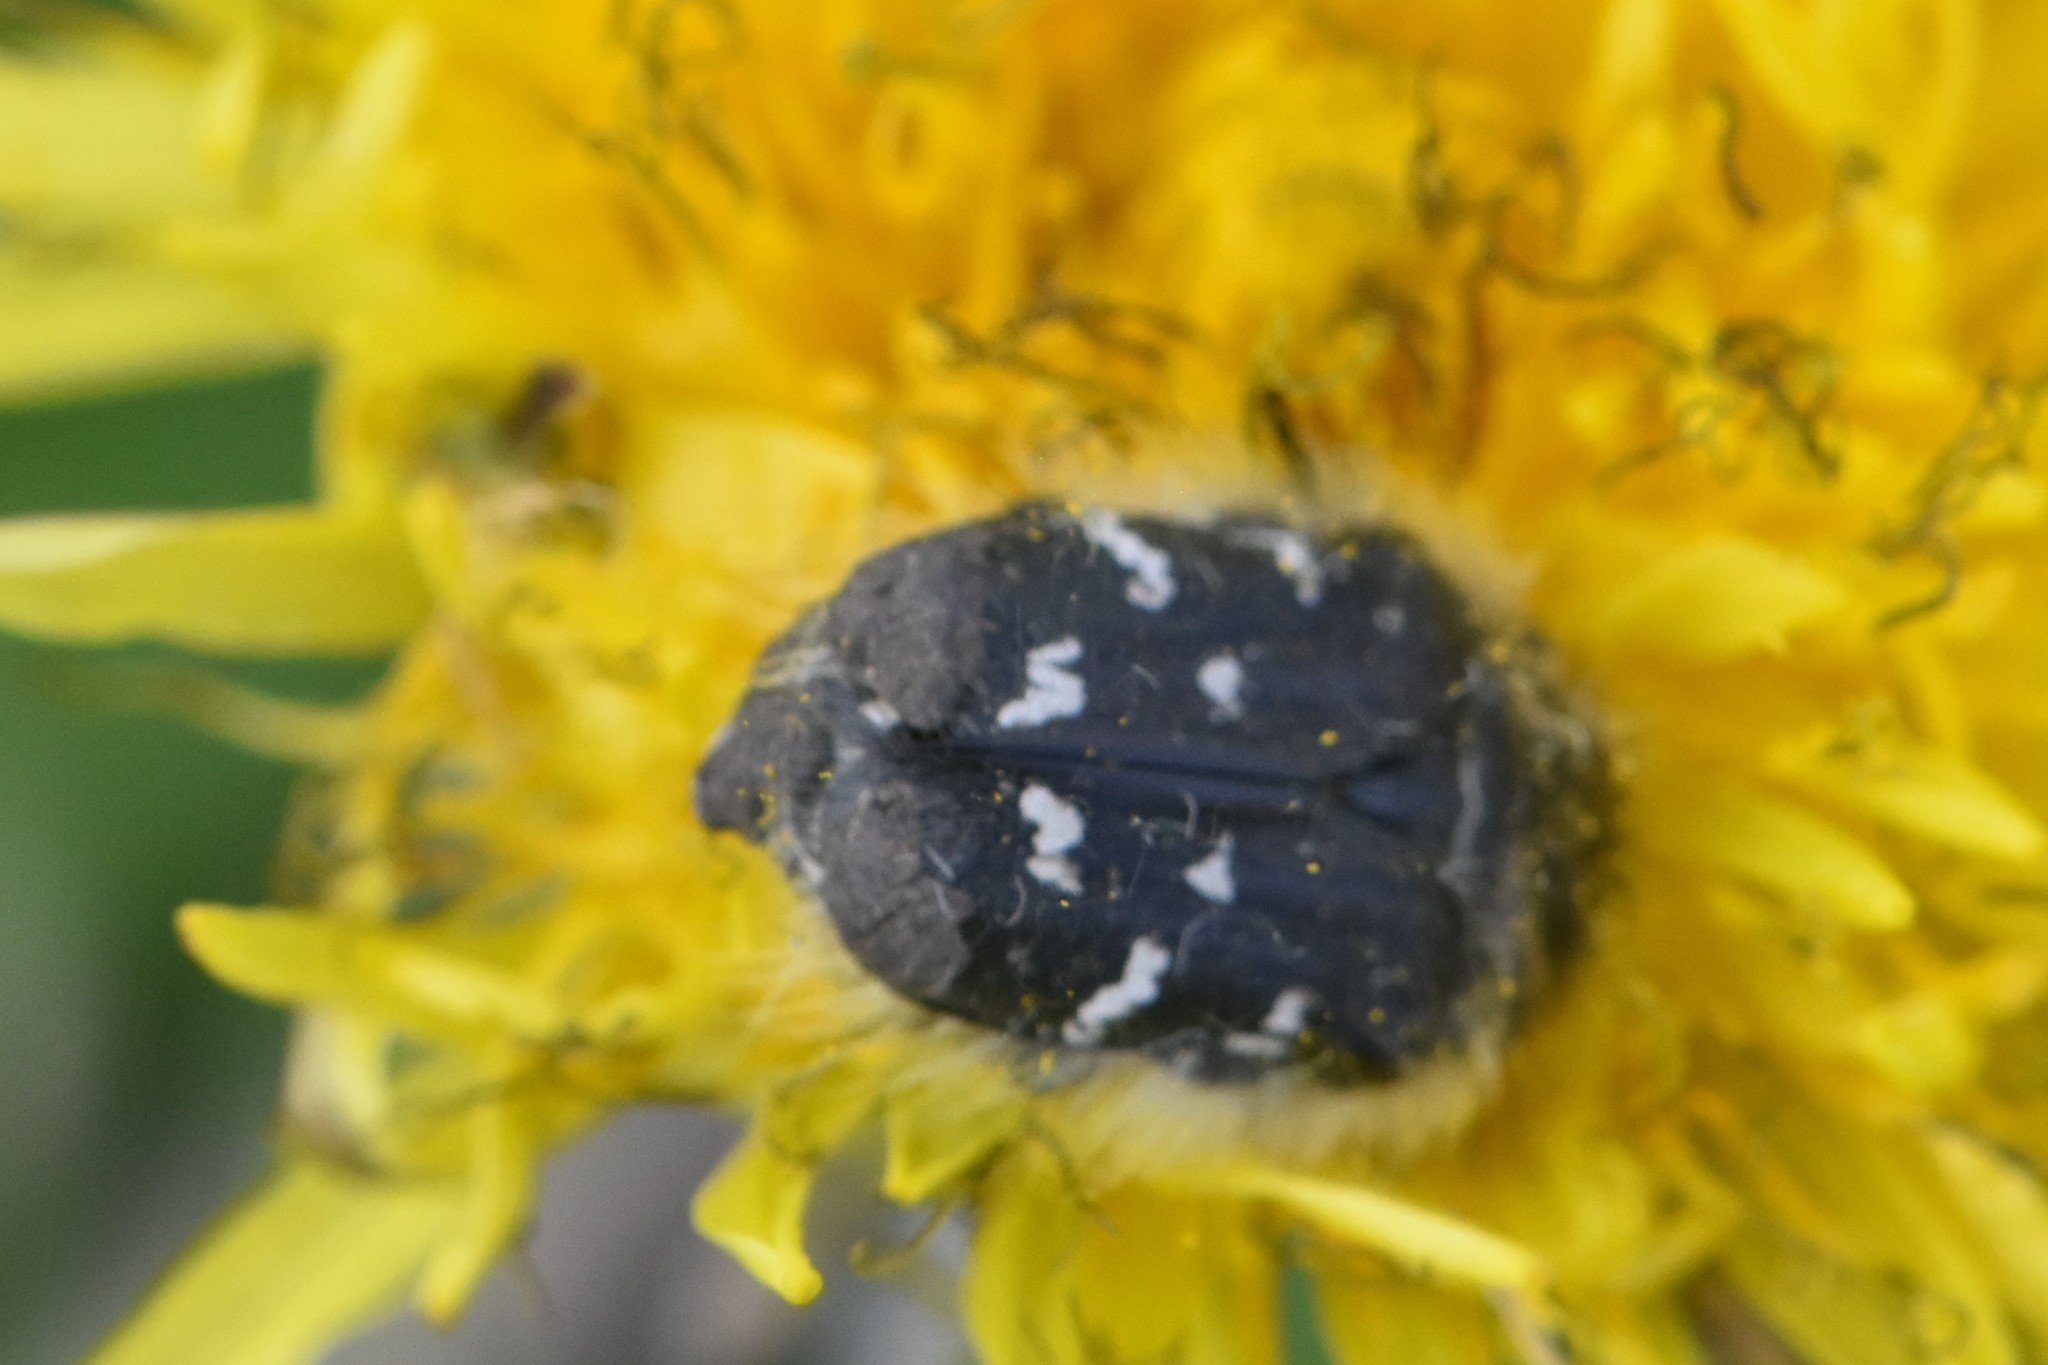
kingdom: Animalia
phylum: Arthropoda
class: Insecta
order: Coleoptera
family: Scarabaeidae
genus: Tropinota
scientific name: Tropinota hirta
